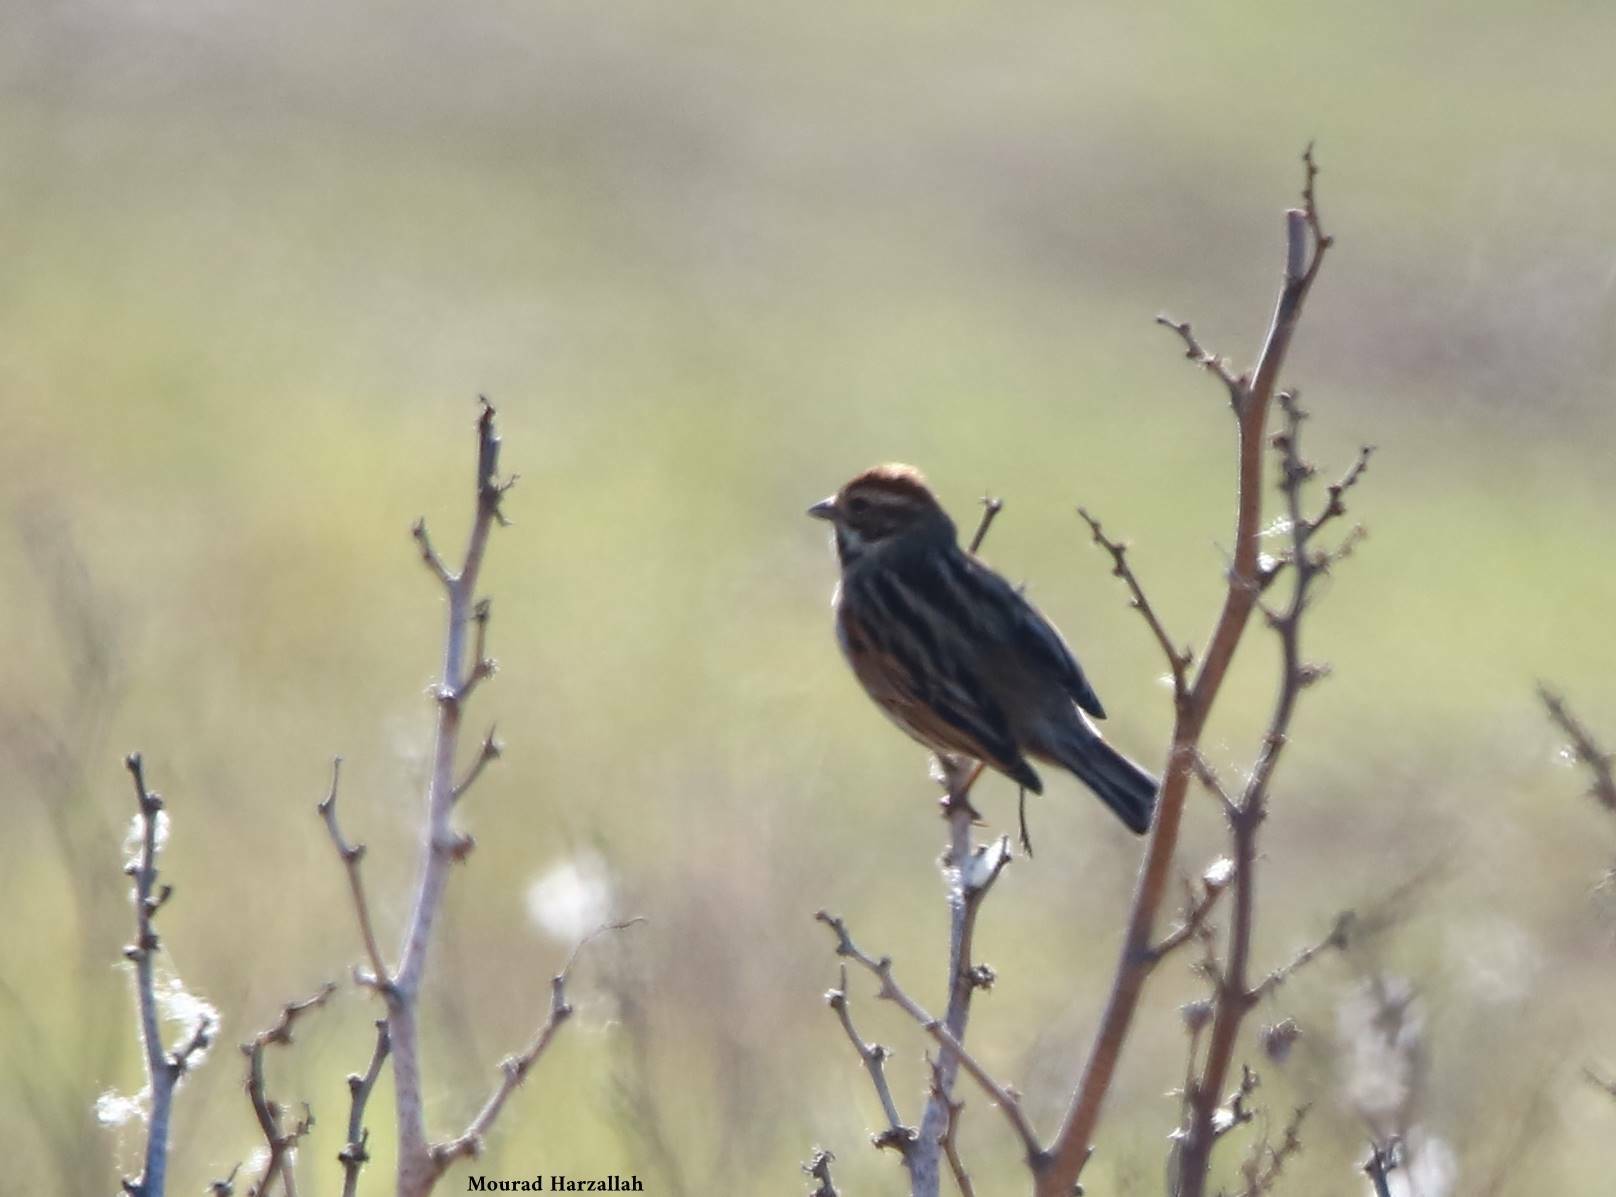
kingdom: Animalia
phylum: Chordata
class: Aves
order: Passeriformes
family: Emberizidae
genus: Emberiza
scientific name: Emberiza schoeniclus
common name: Reed bunting
